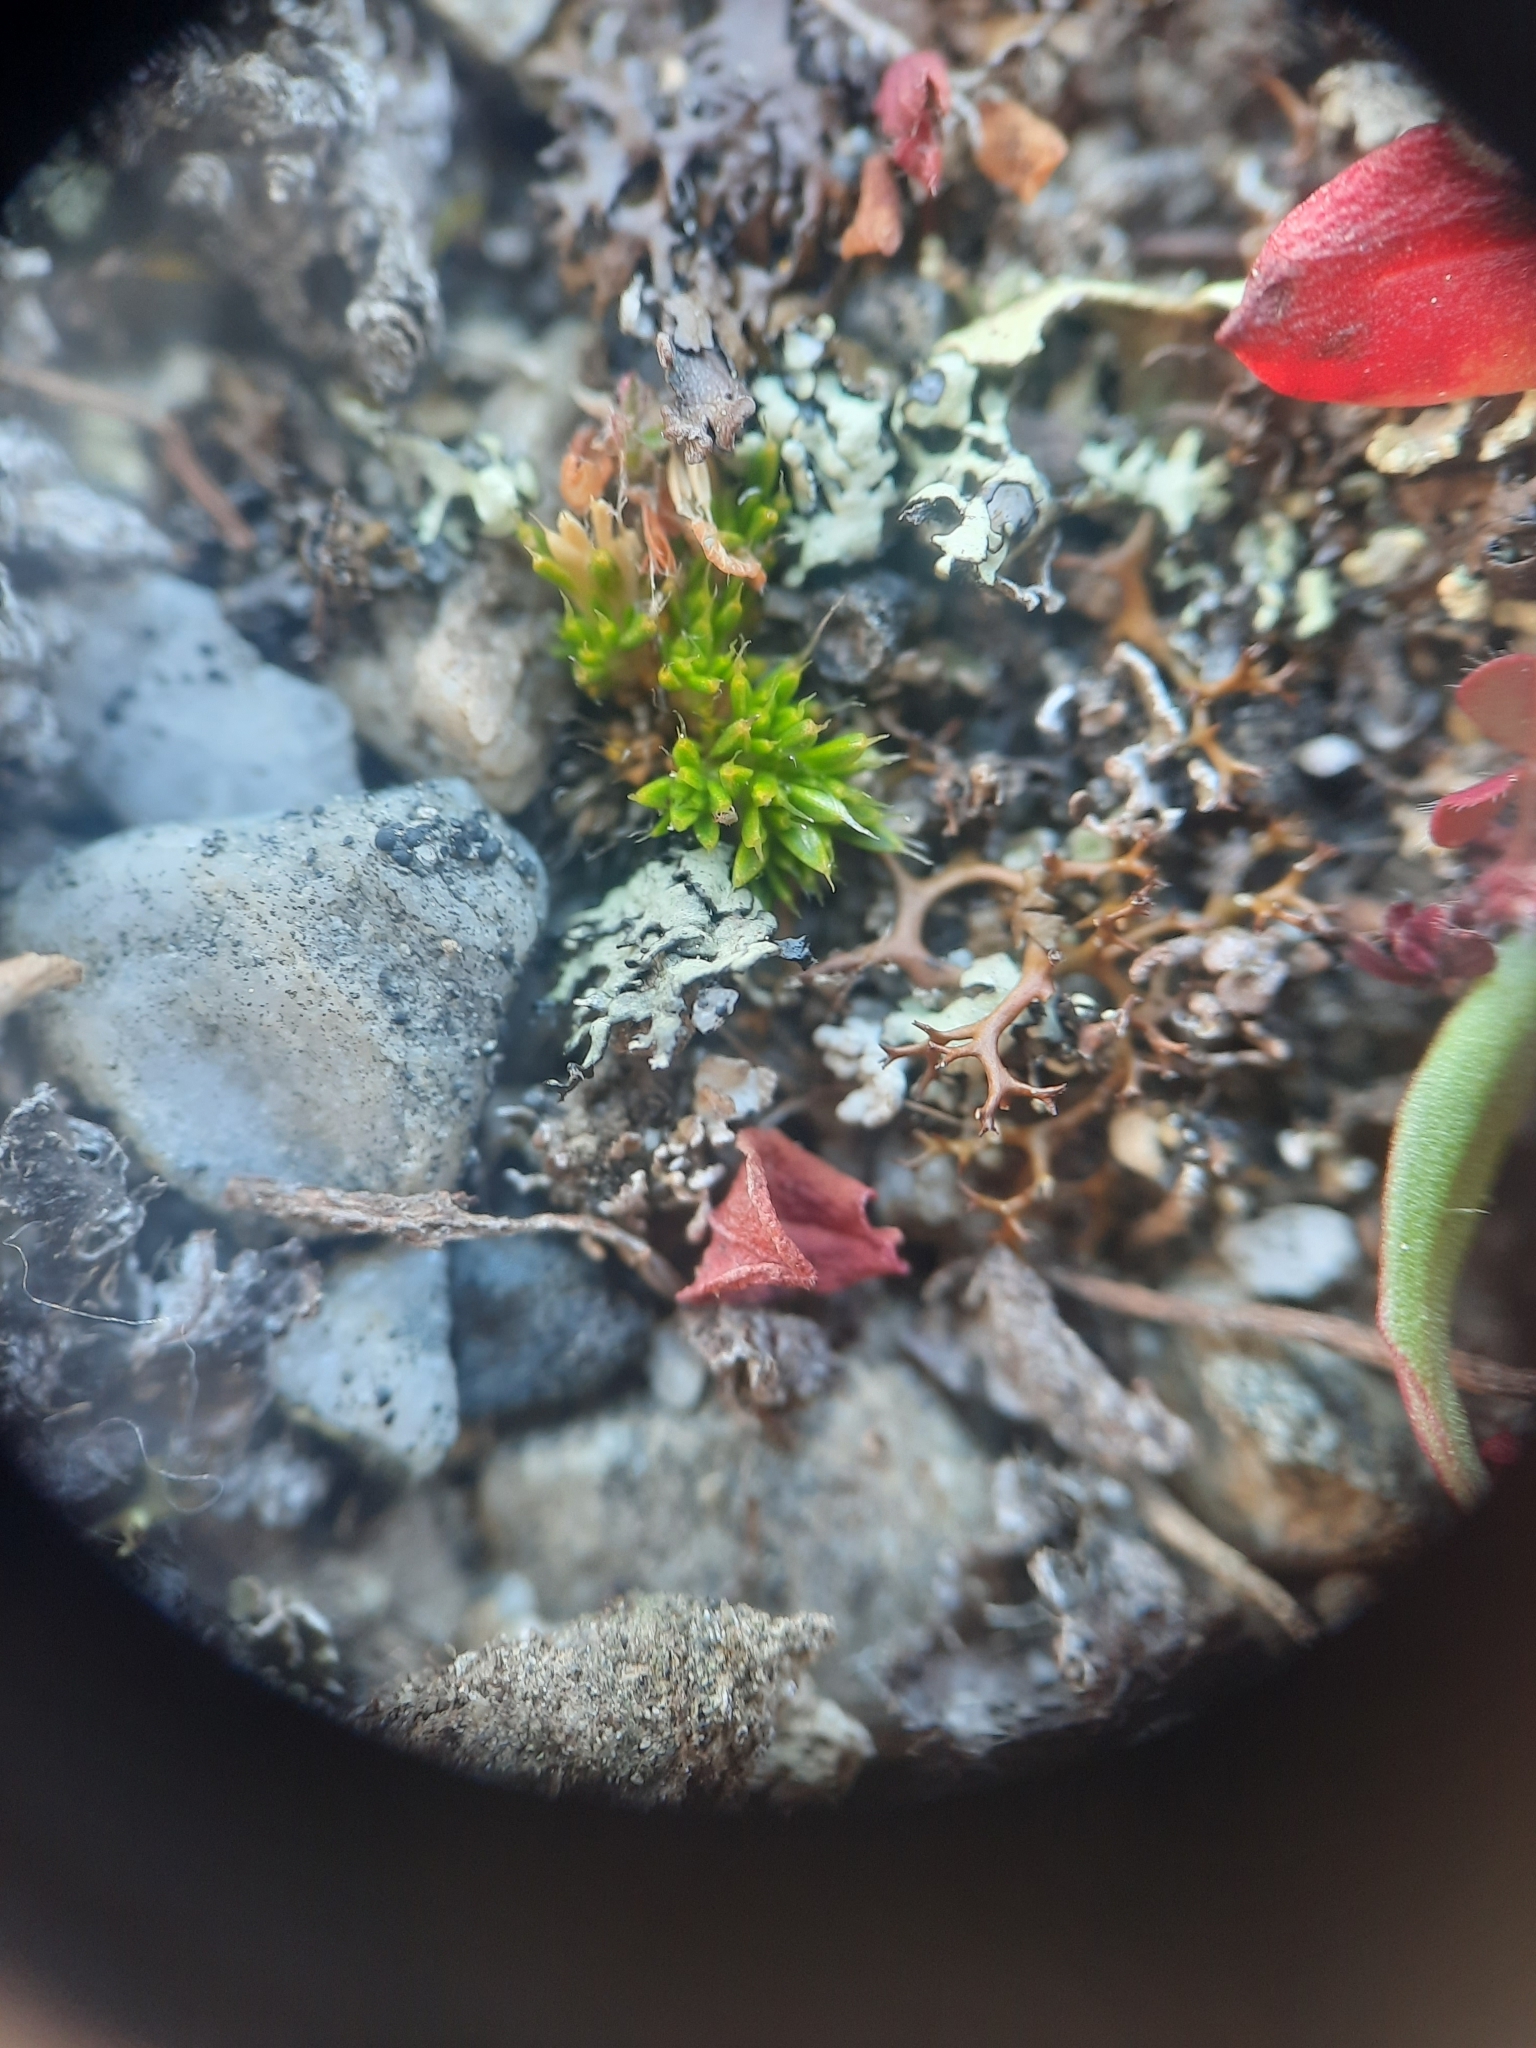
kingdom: Plantae
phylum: Tracheophyta
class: Magnoliopsida
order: Caryophyllales
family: Caryophyllaceae
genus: Colobanthus
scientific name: Colobanthus brevisepalus
